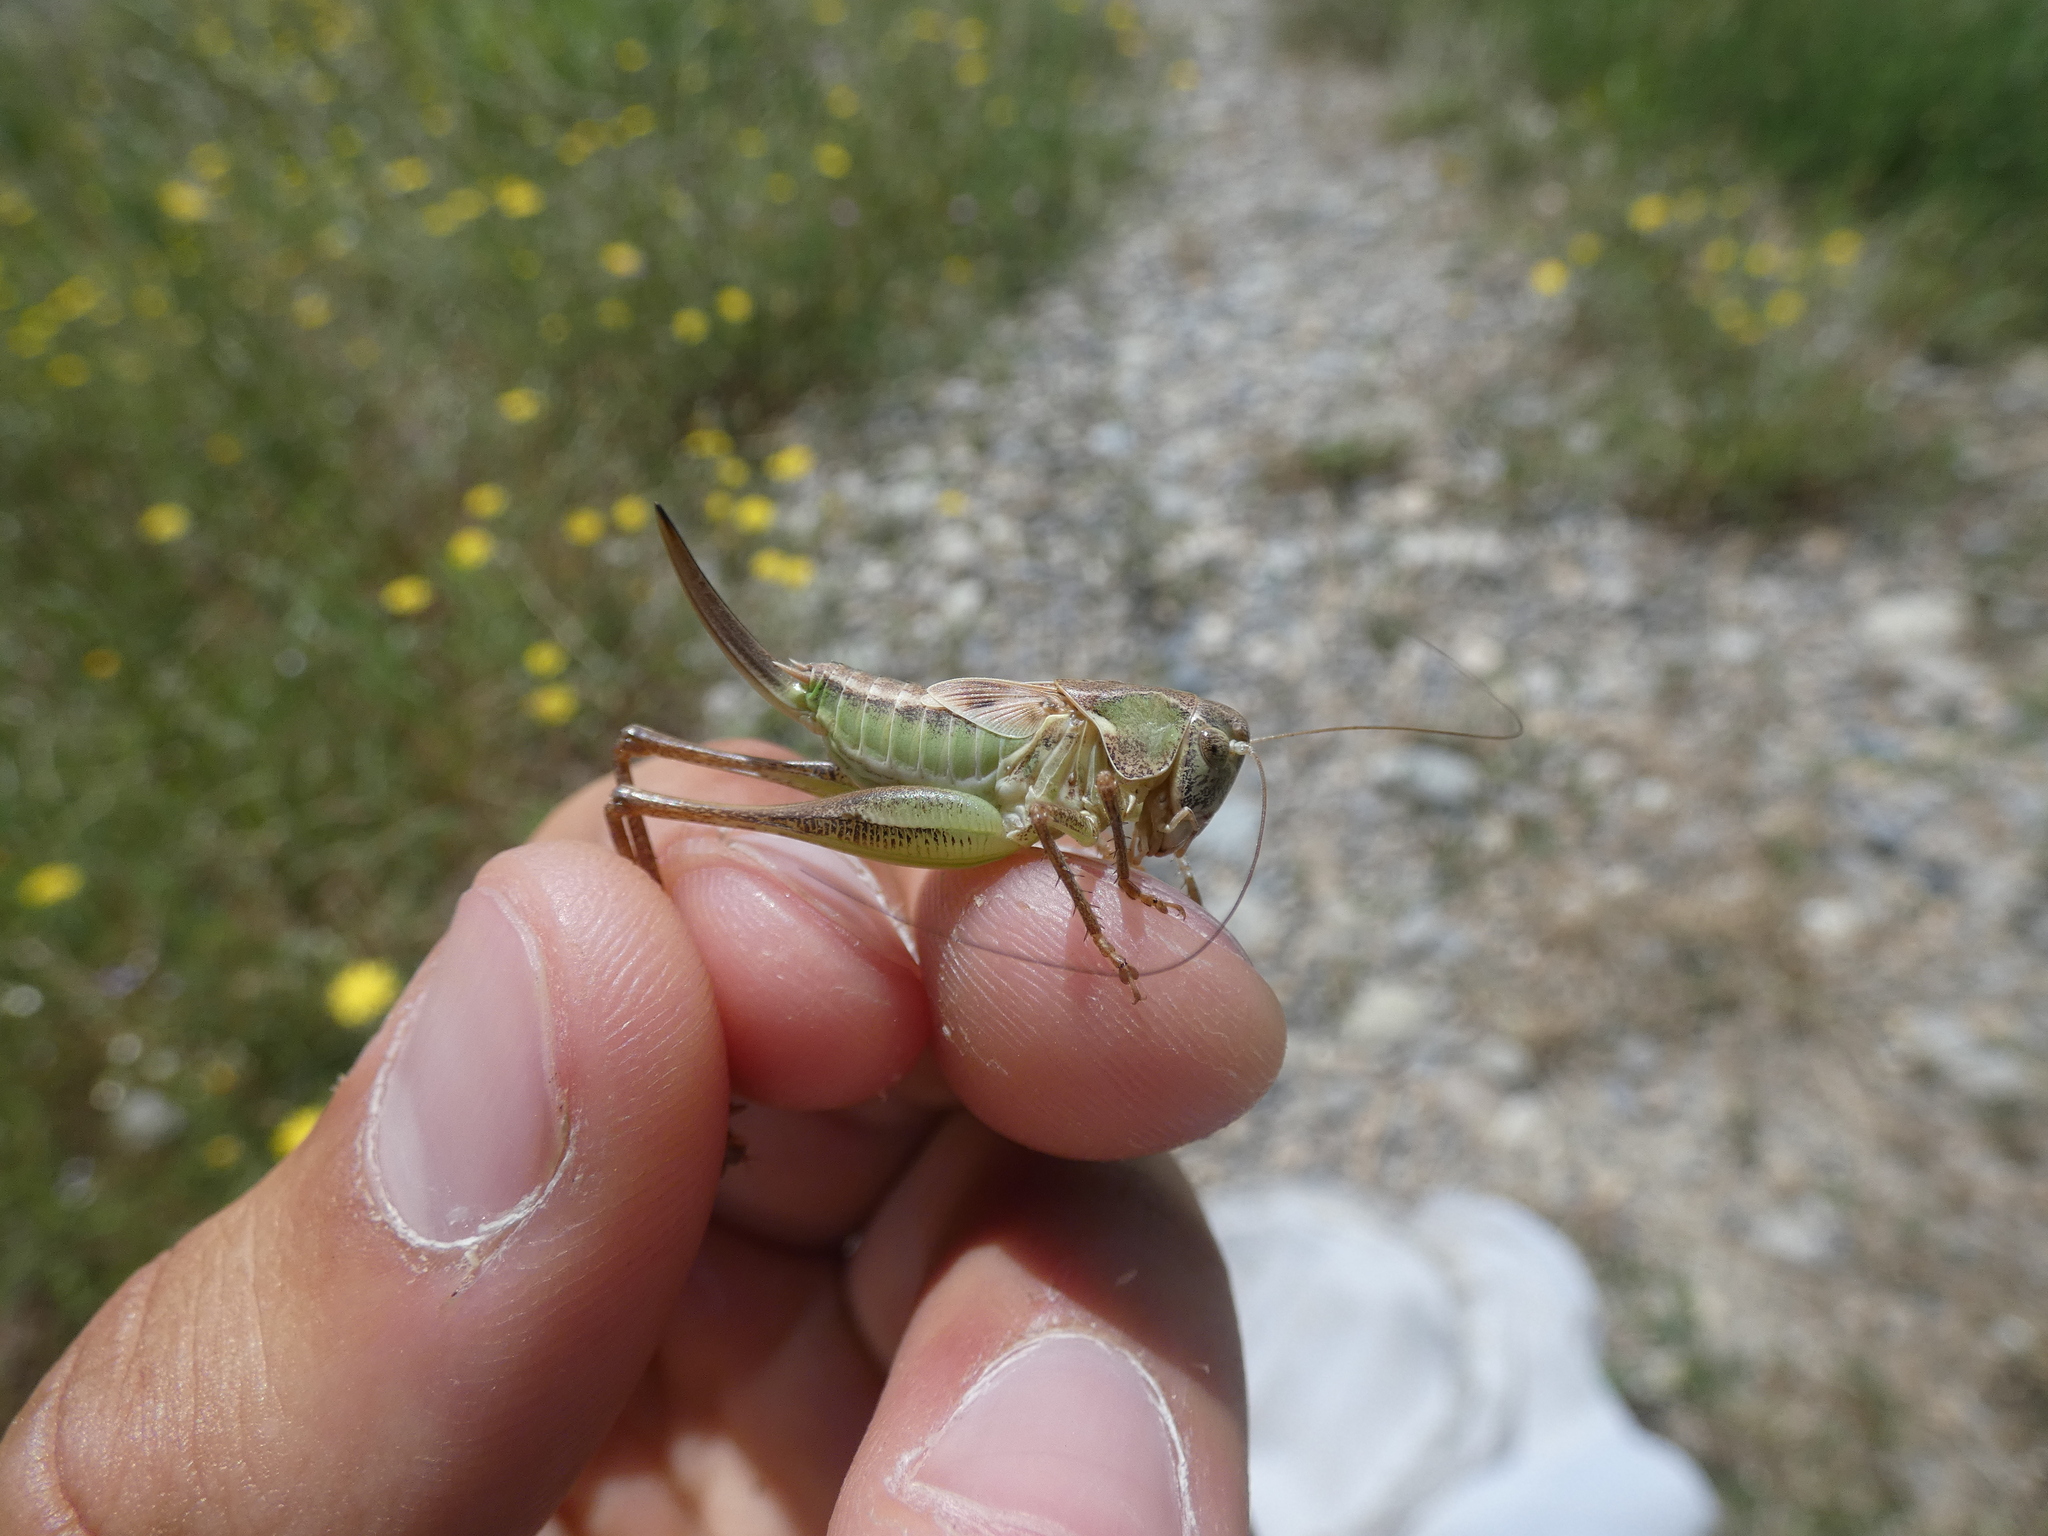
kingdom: Animalia
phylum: Arthropoda
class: Insecta
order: Orthoptera
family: Tettigoniidae
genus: Platycleis
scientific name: Platycleis affinis
